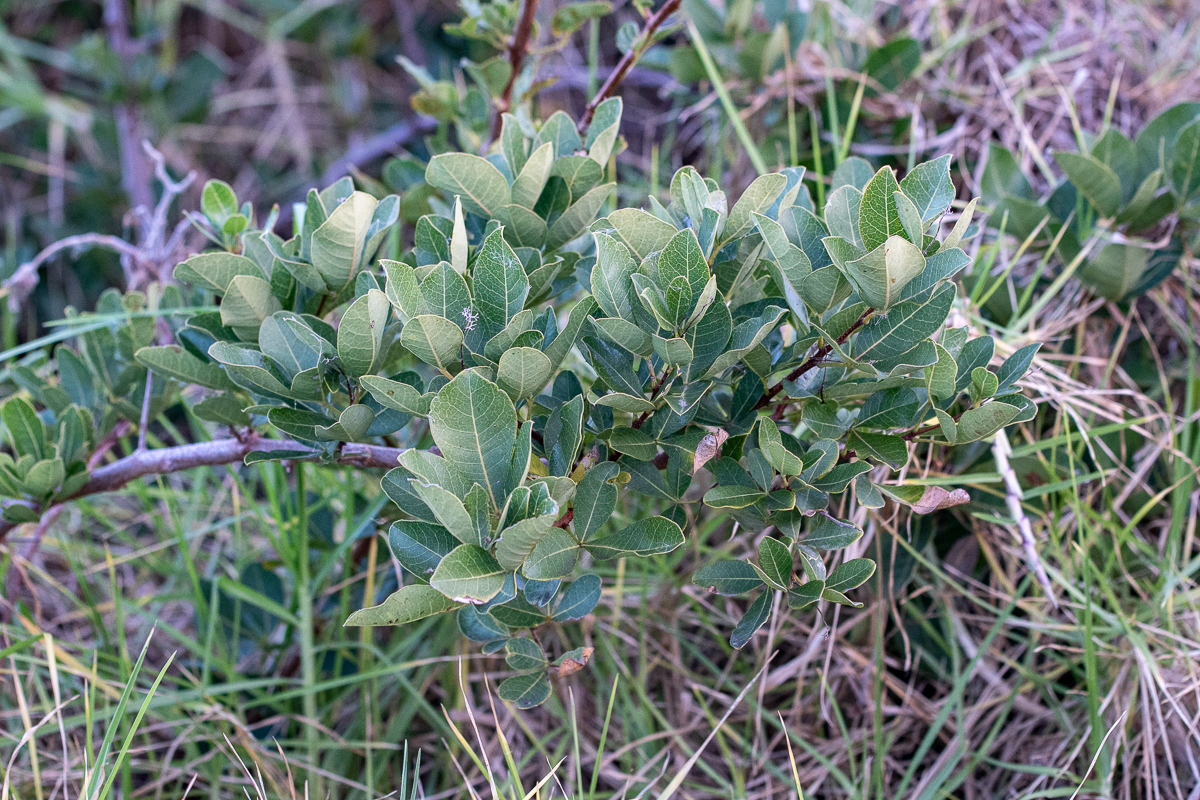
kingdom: Plantae
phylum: Tracheophyta
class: Magnoliopsida
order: Sapindales
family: Anacardiaceae
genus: Searsia
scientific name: Searsia laevigata
